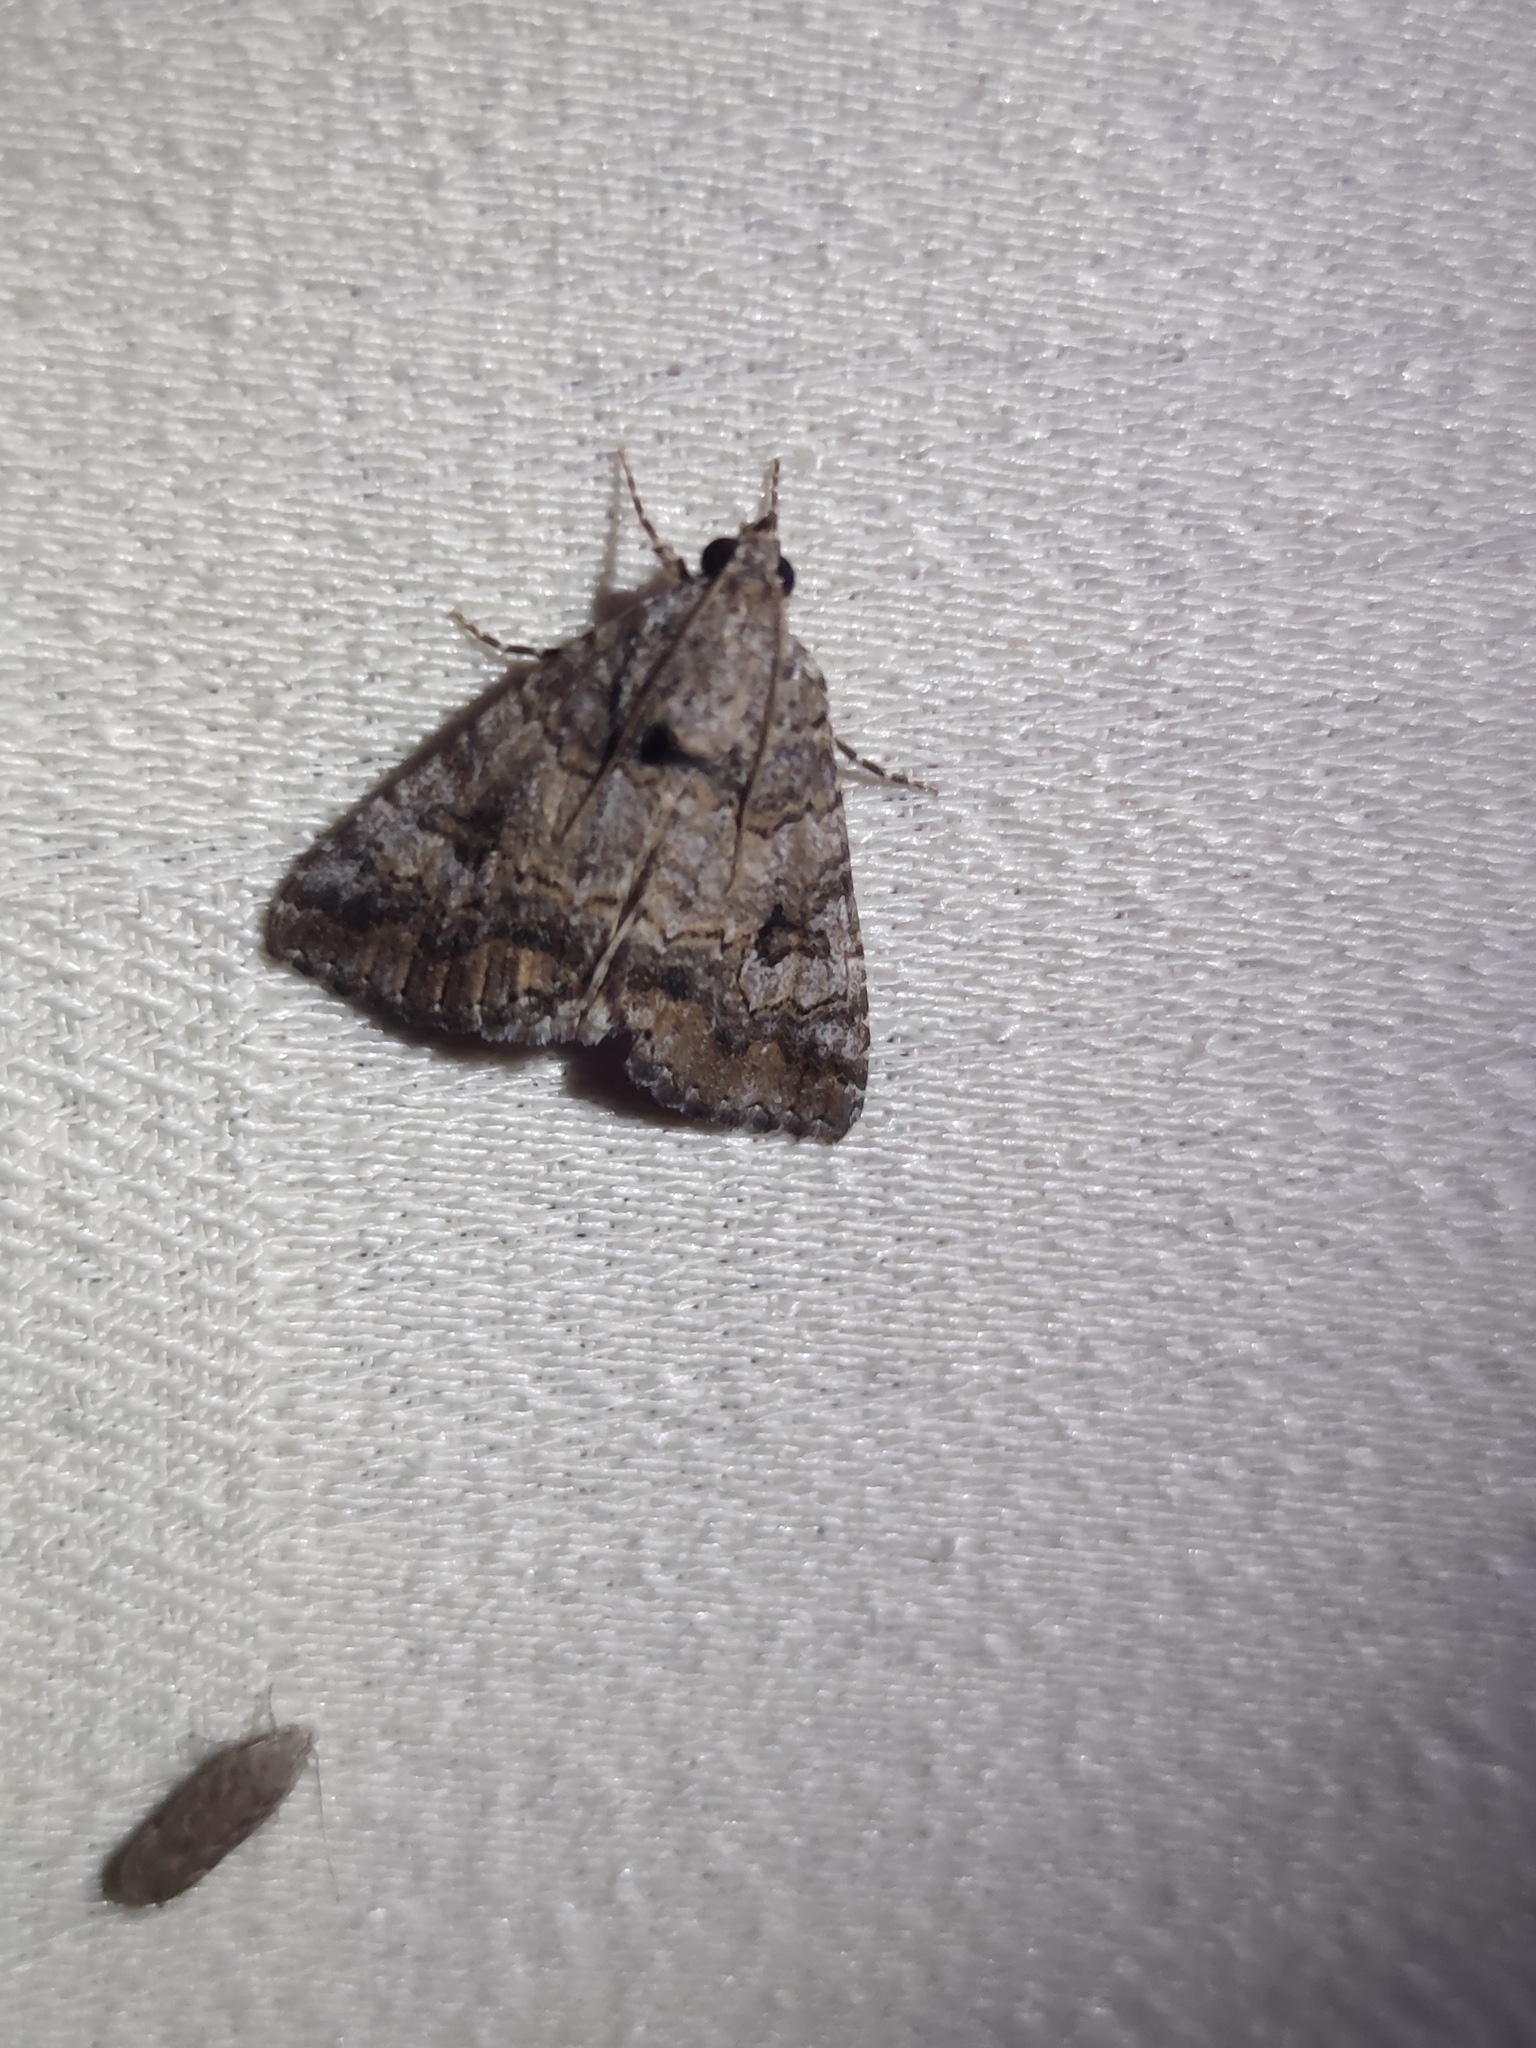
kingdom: Animalia
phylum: Arthropoda
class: Insecta
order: Lepidoptera
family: Erebidae
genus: Eubolina
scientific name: Eubolina impartialis
